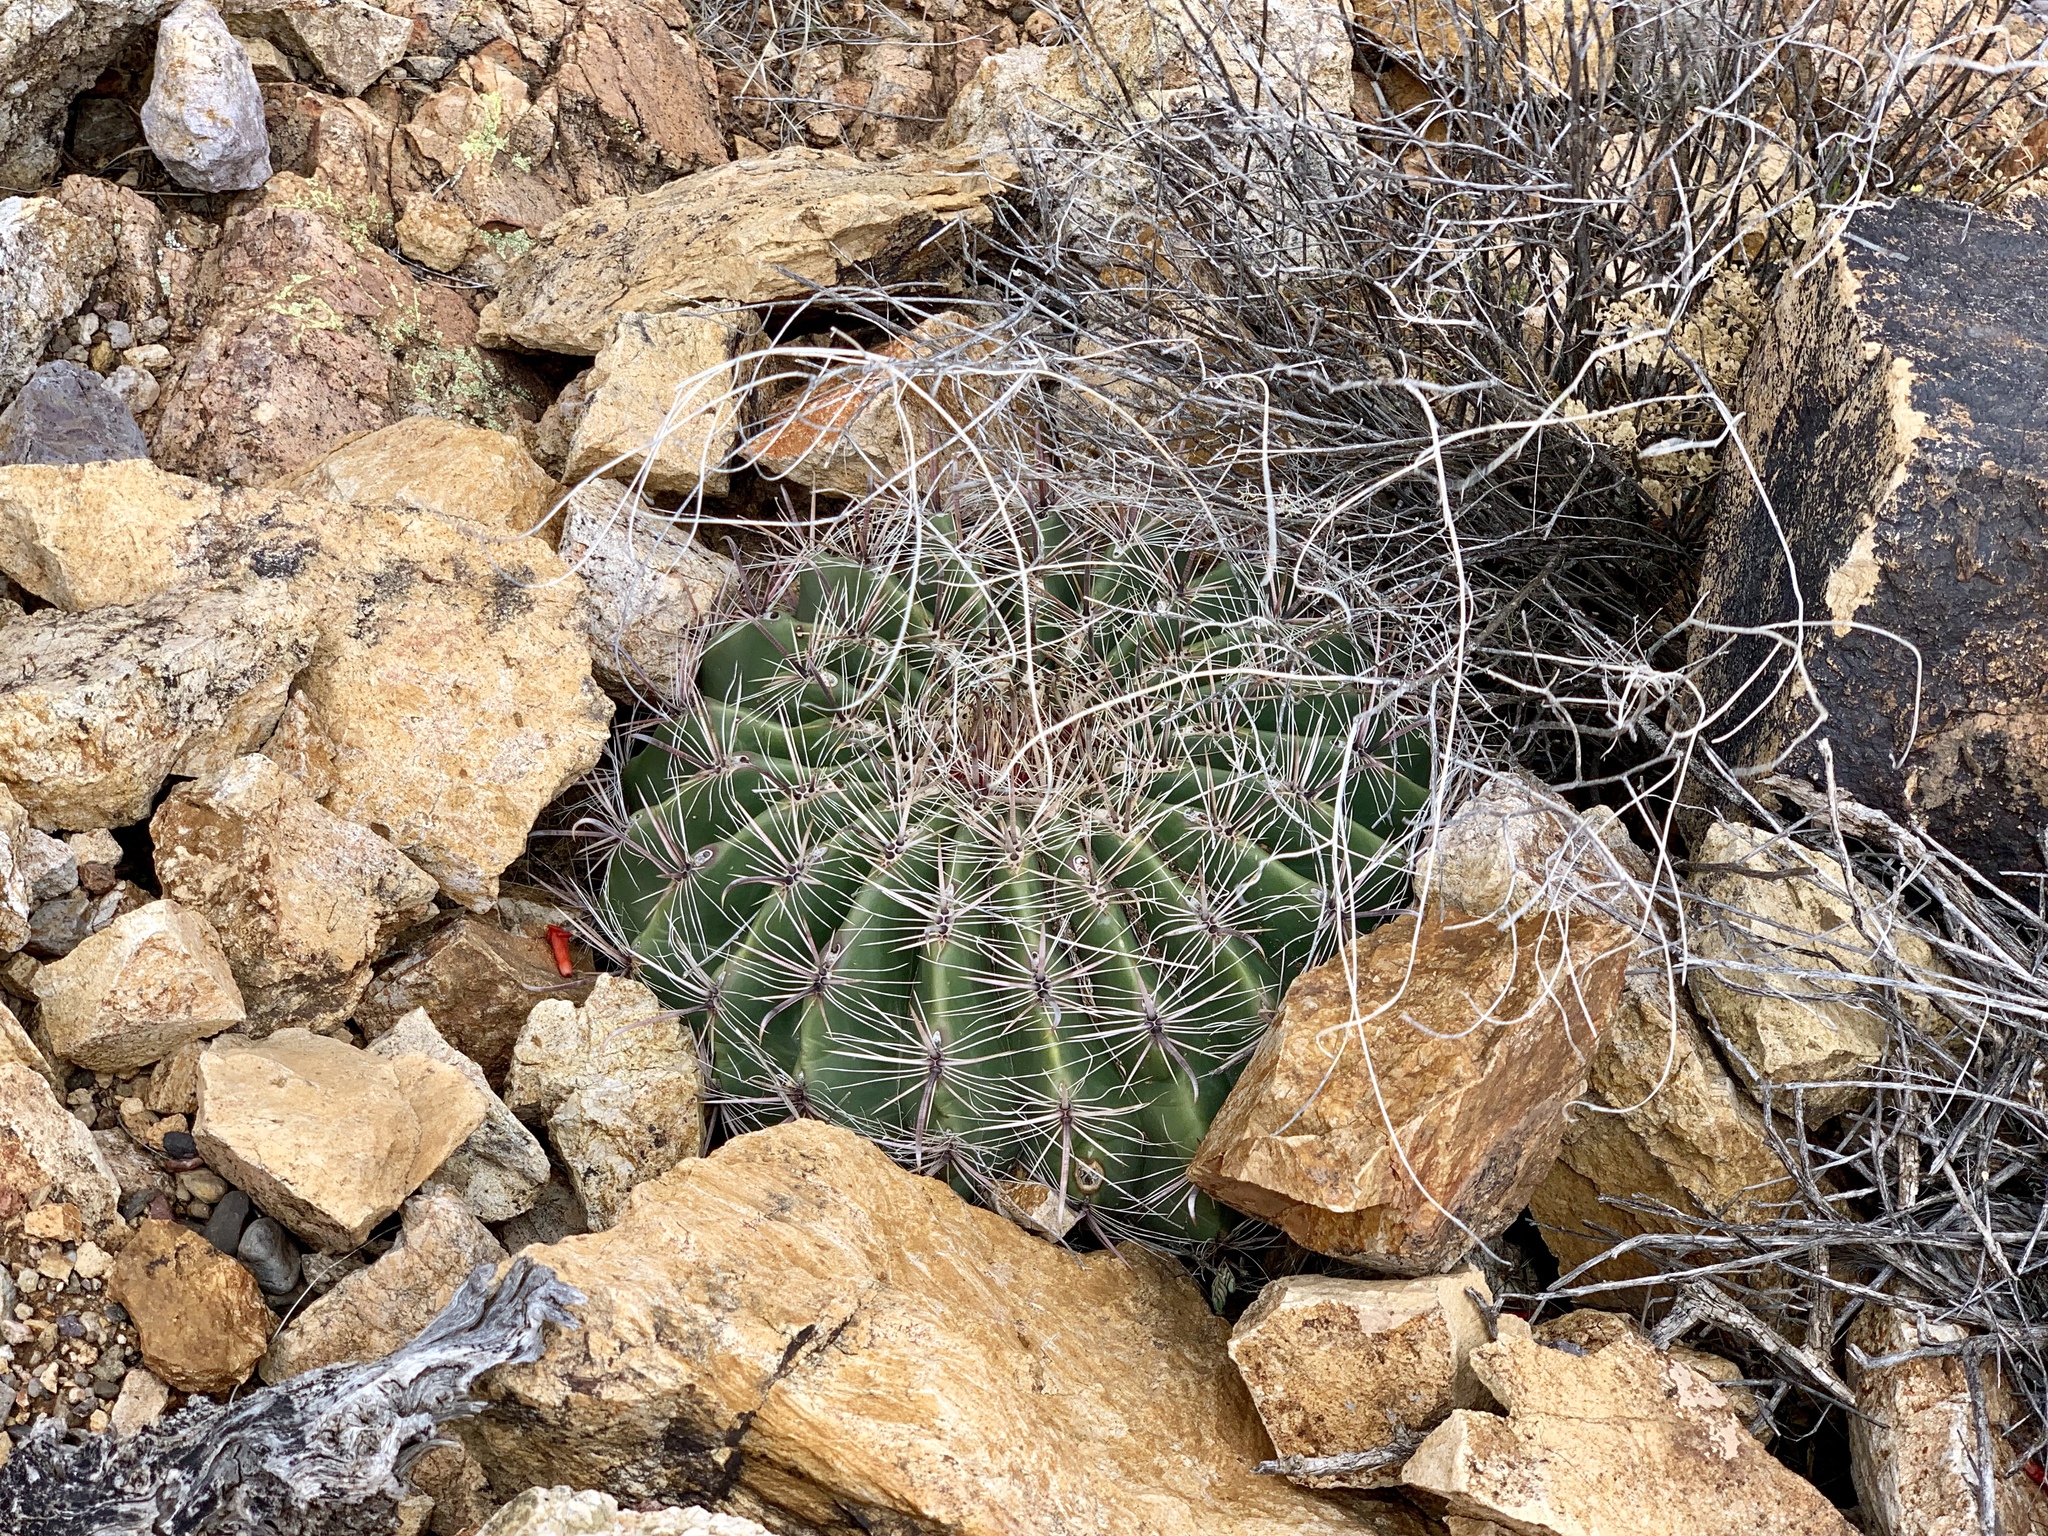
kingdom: Plantae
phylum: Tracheophyta
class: Magnoliopsida
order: Caryophyllales
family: Cactaceae
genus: Ferocactus
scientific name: Ferocactus wislizeni
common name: Candy barrel cactus
